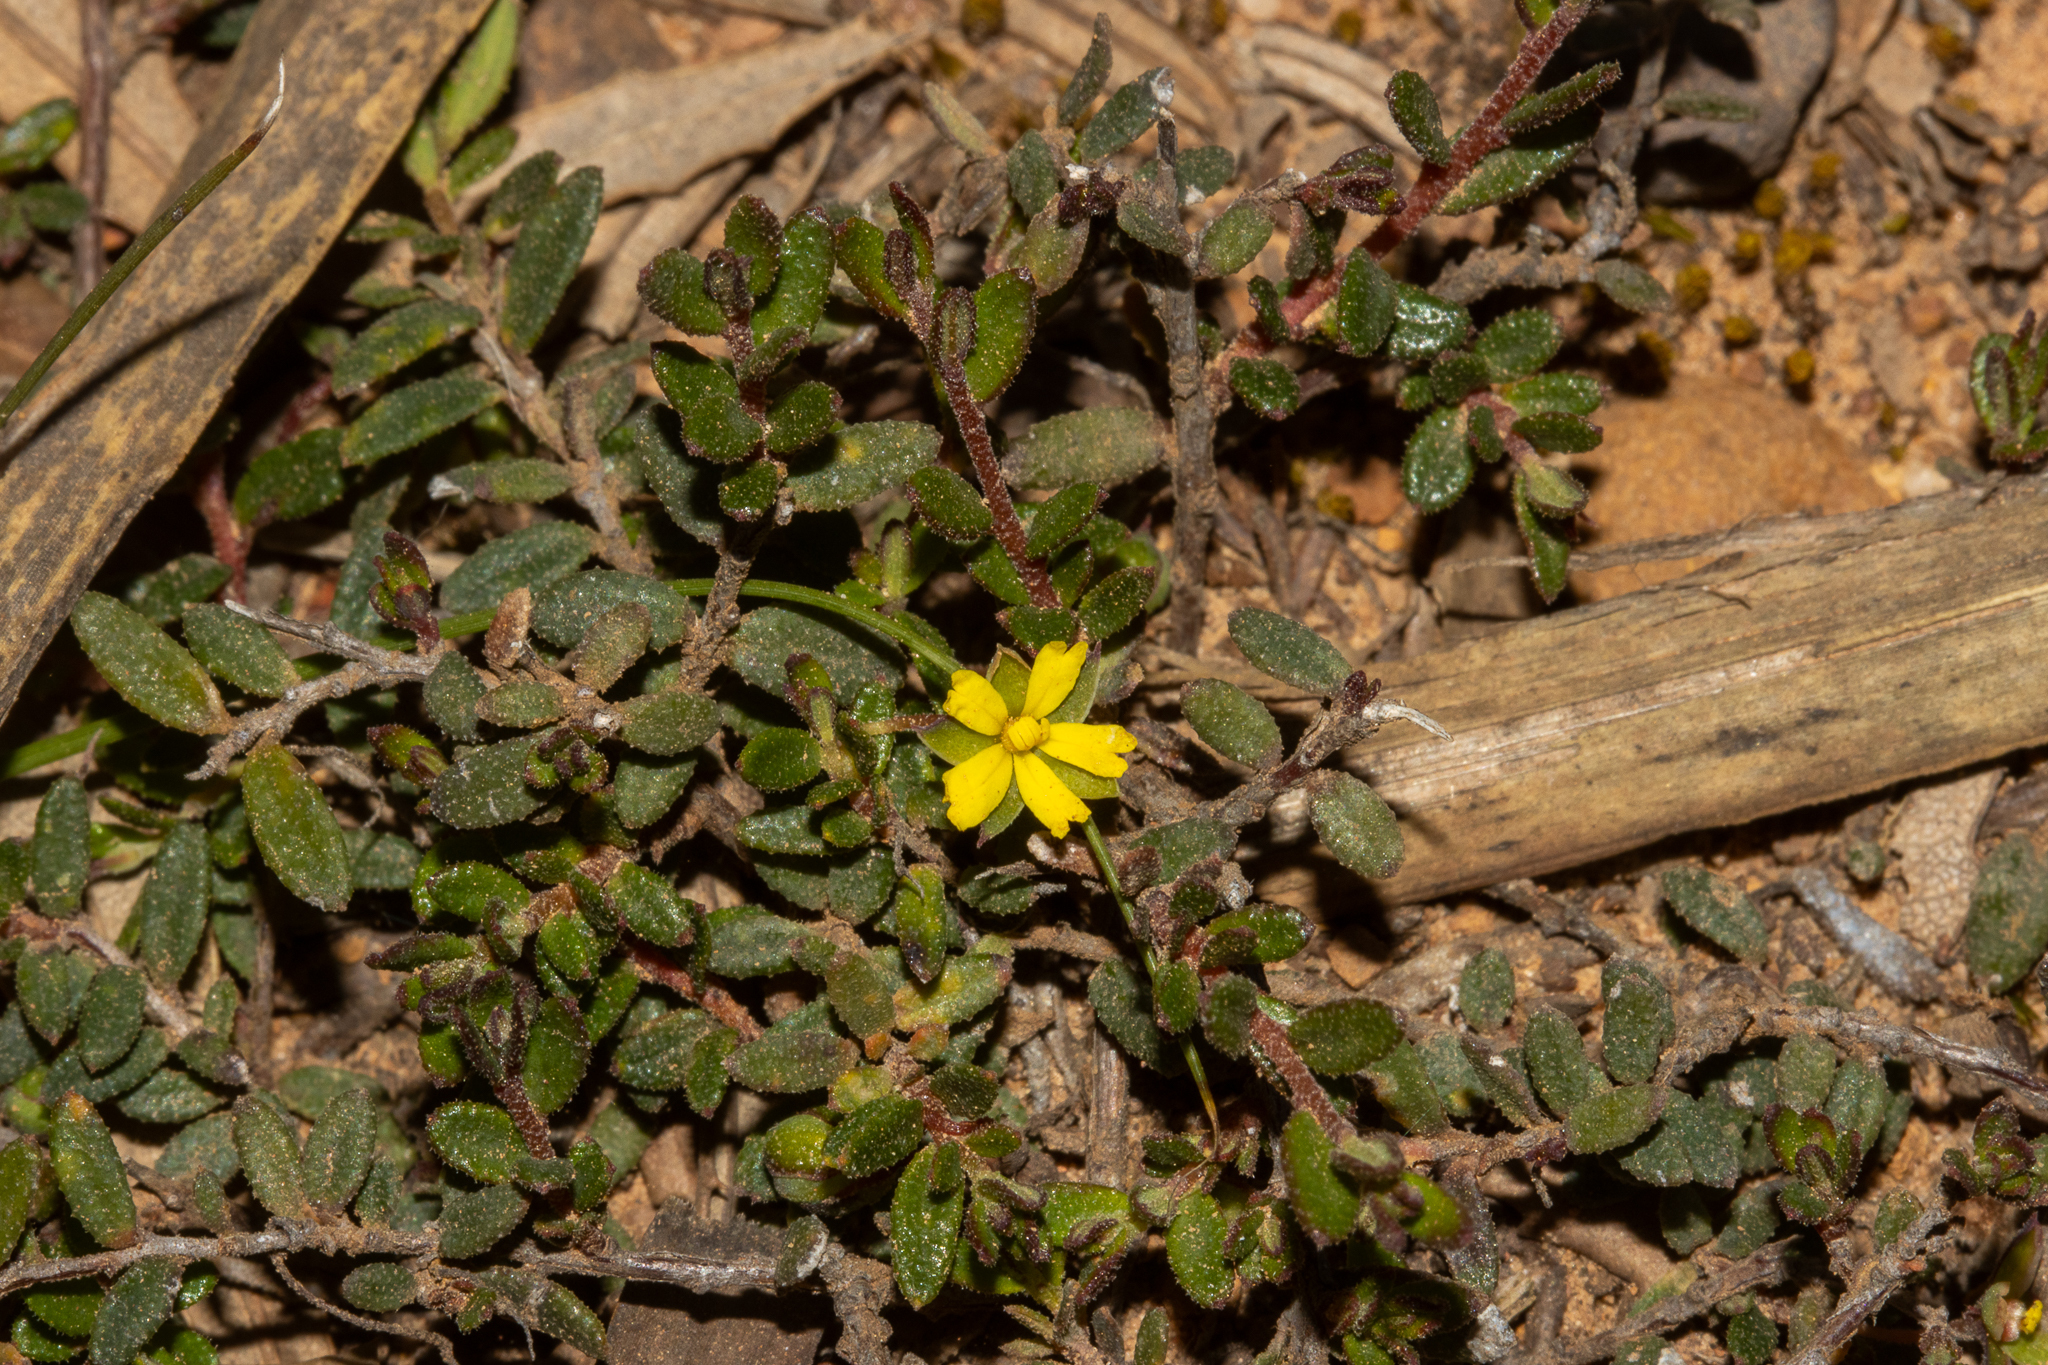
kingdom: Plantae
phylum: Tracheophyta
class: Magnoliopsida
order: Dilleniales
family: Dilleniaceae
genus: Hibbertia
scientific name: Hibbertia
